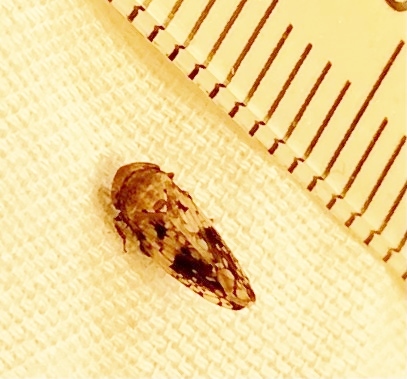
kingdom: Animalia
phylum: Arthropoda
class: Insecta
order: Hemiptera
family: Cicadellidae
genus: Menosoma
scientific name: Menosoma cinctum
